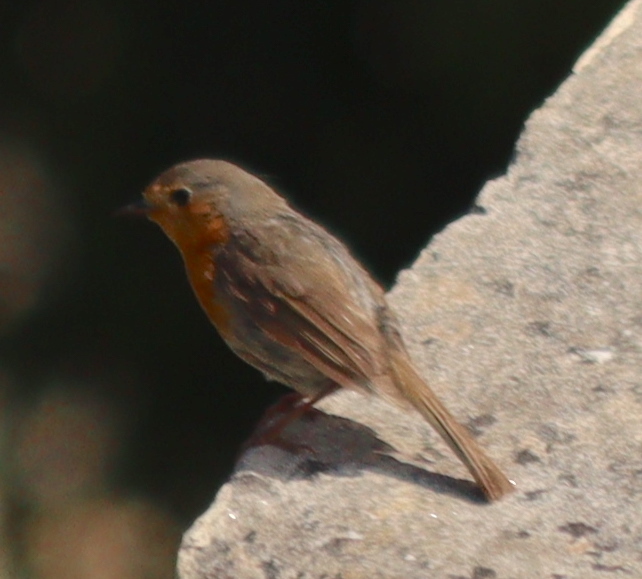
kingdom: Animalia
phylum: Chordata
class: Aves
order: Passeriformes
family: Muscicapidae
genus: Erithacus
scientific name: Erithacus rubecula
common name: European robin
